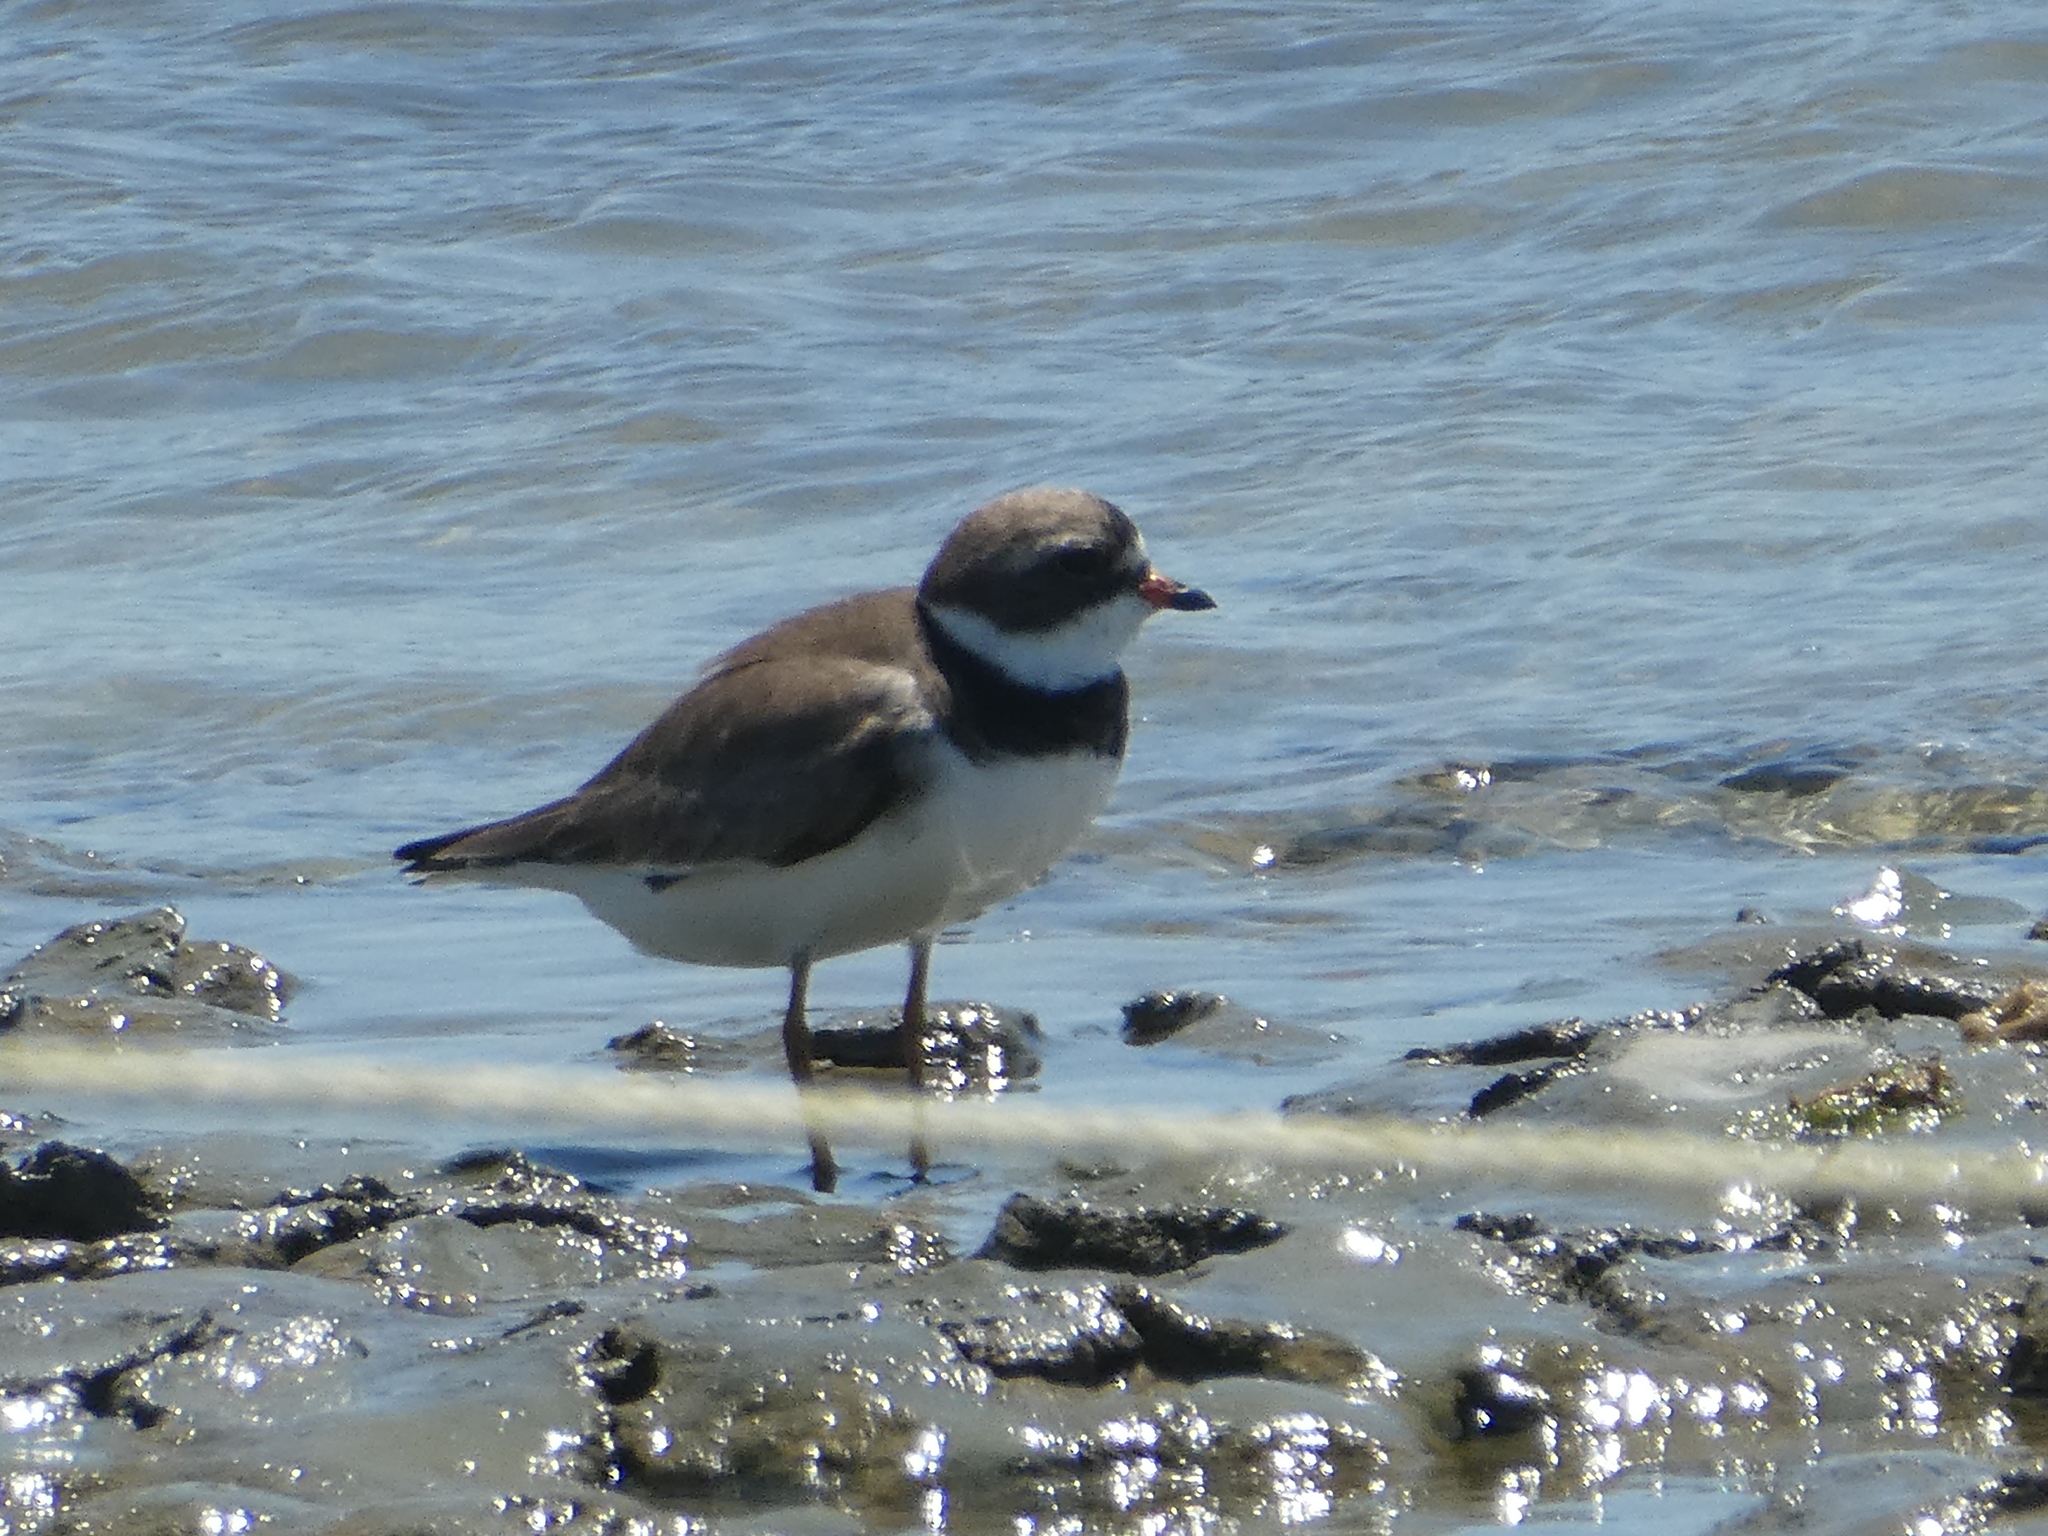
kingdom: Animalia
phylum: Chordata
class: Aves
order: Charadriiformes
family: Charadriidae
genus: Charadrius
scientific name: Charadrius semipalmatus
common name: Semipalmated plover
